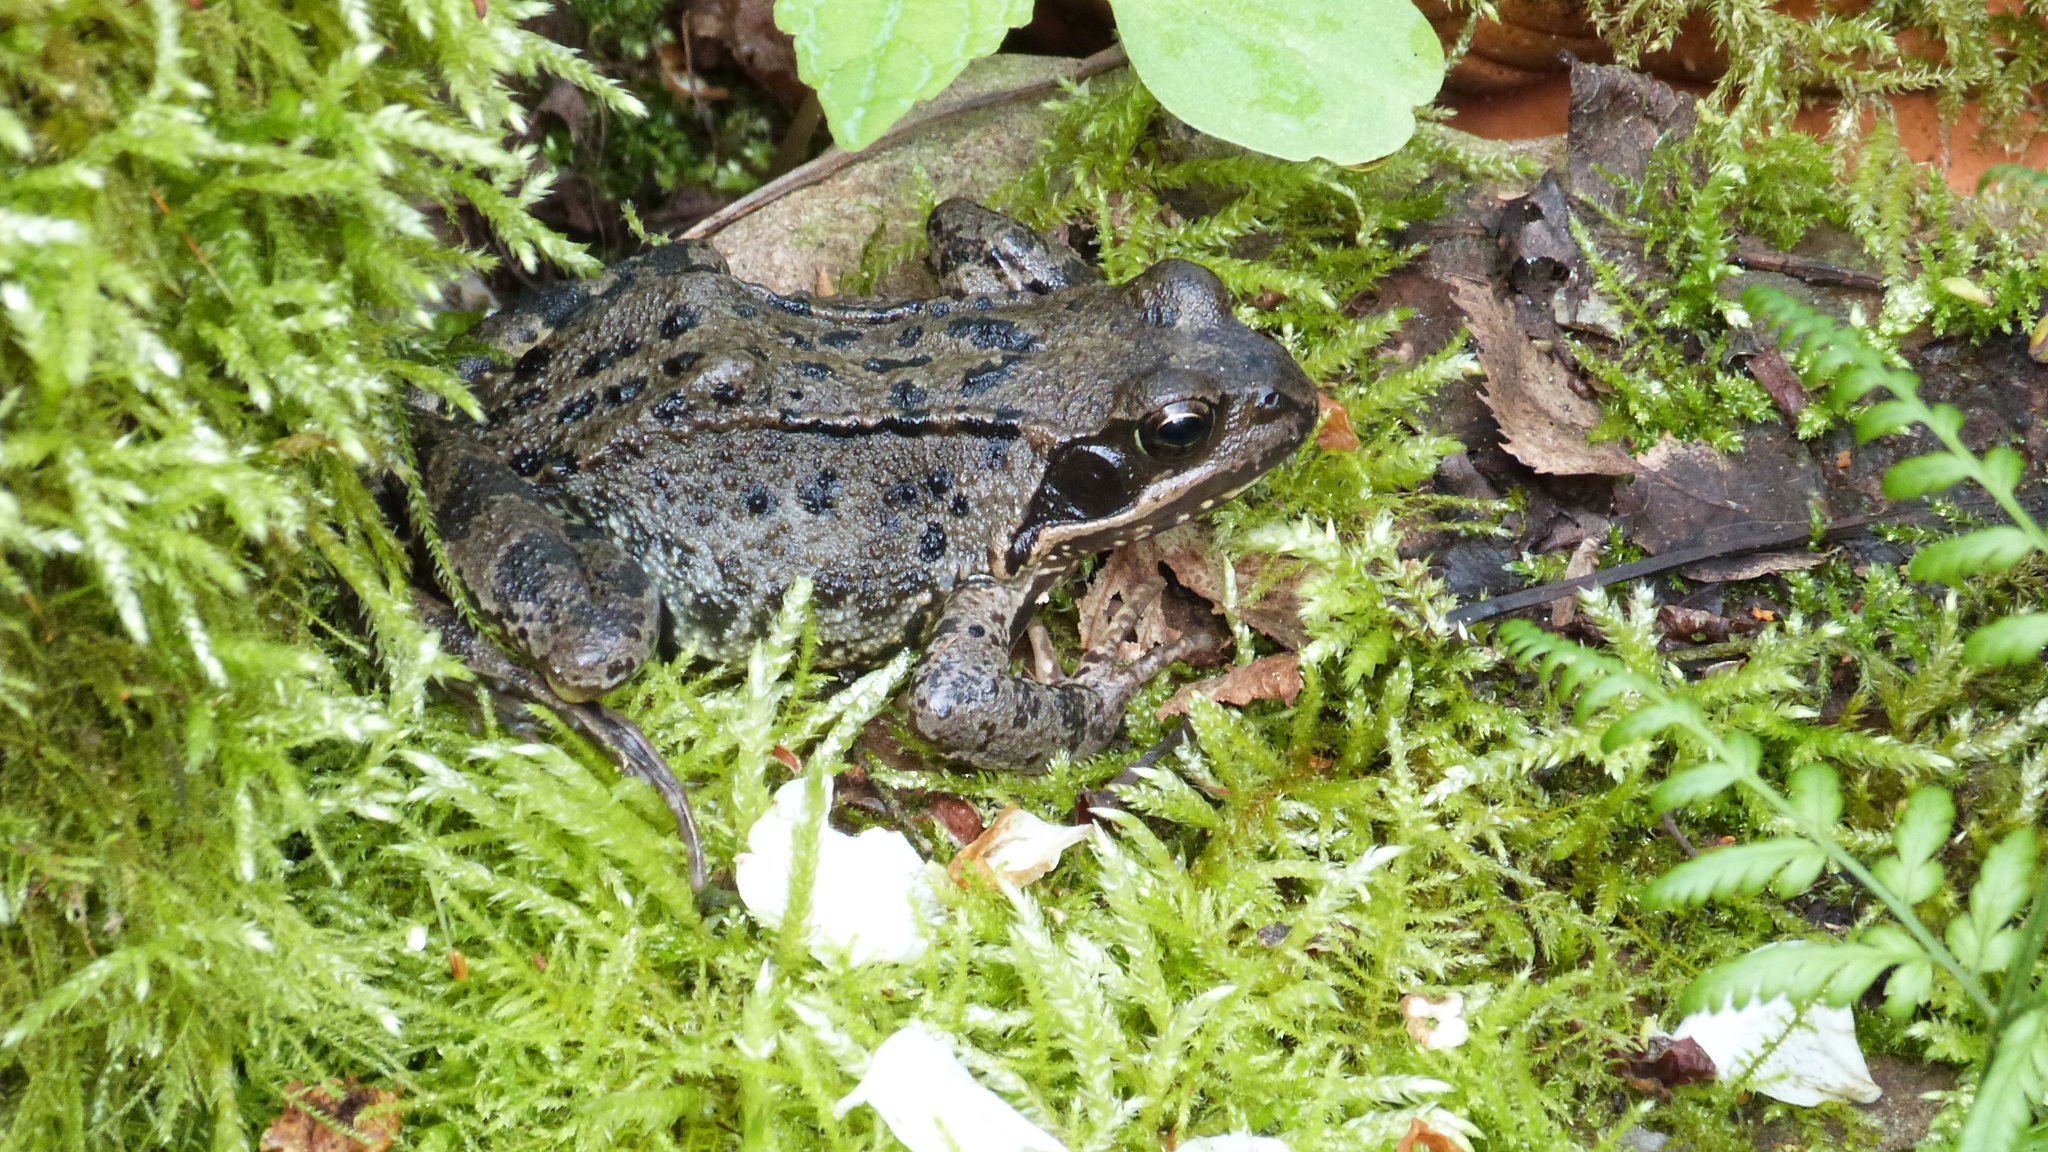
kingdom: Animalia
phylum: Chordata
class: Amphibia
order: Anura
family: Ranidae
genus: Rana
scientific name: Rana temporaria
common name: Common frog
